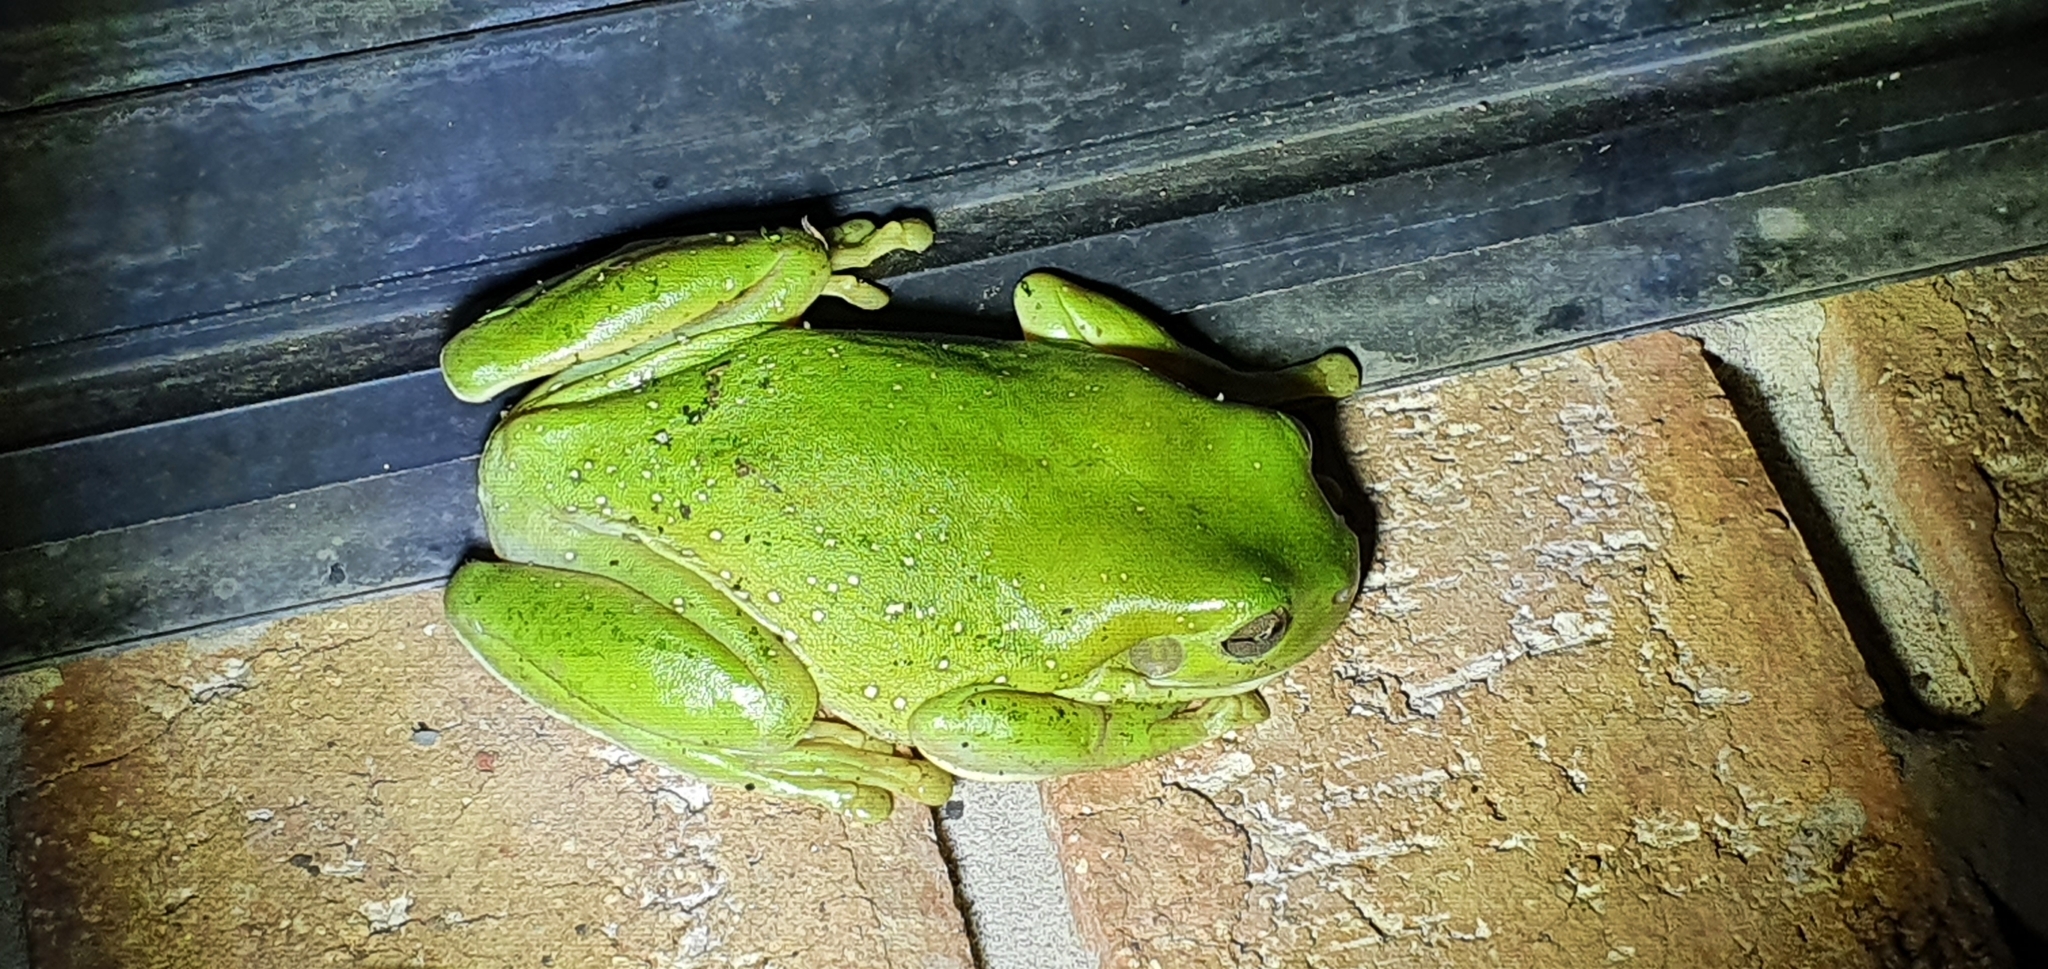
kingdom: Animalia
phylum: Chordata
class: Amphibia
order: Anura
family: Pelodryadidae
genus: Ranoidea
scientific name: Ranoidea caerulea
